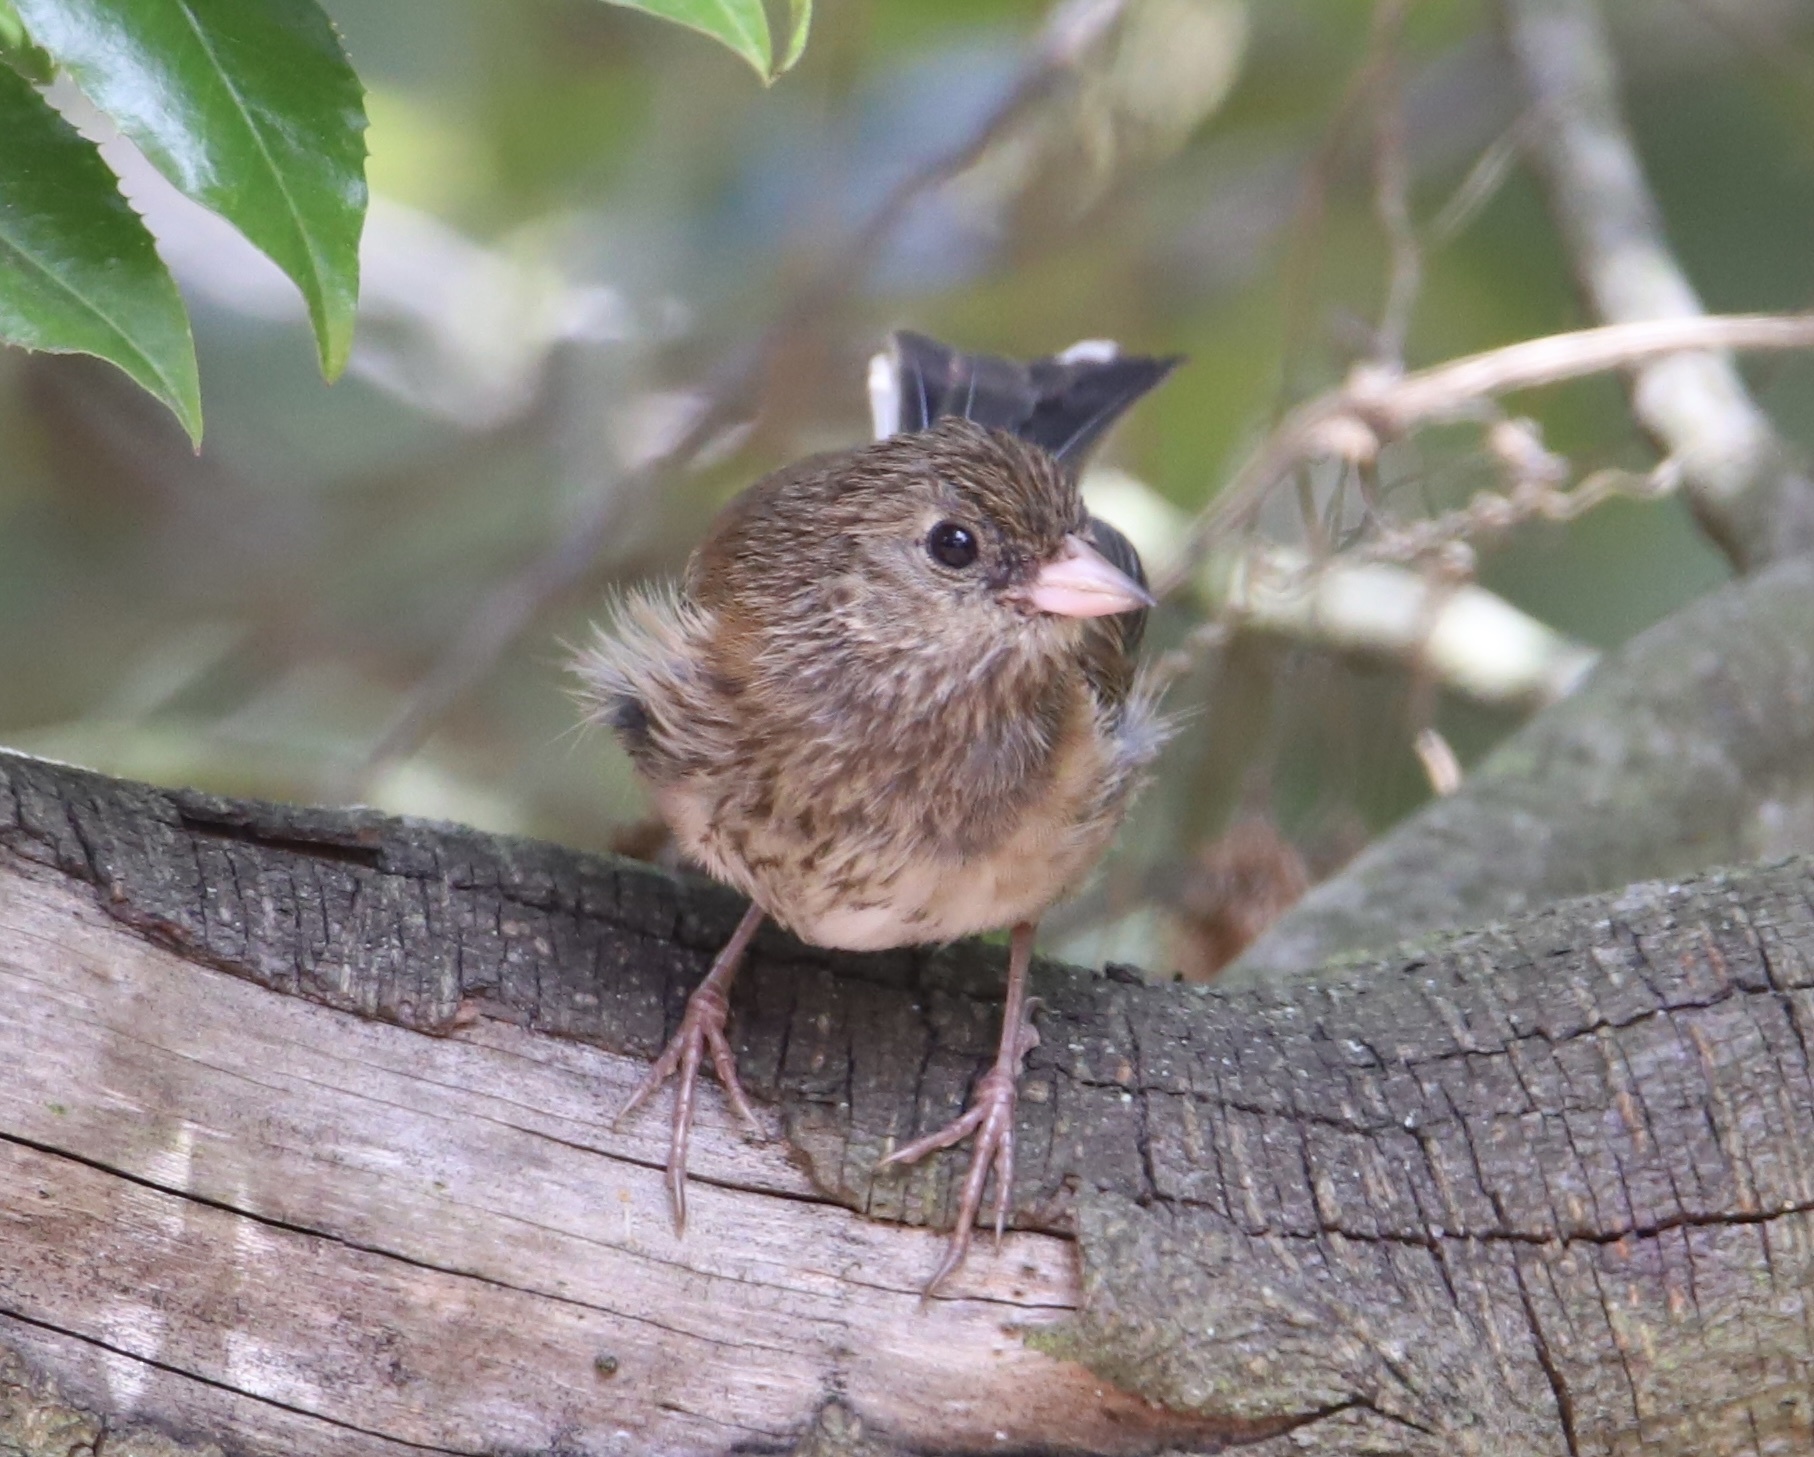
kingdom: Animalia
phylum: Chordata
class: Aves
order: Passeriformes
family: Passerellidae
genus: Junco
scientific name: Junco hyemalis
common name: Dark-eyed junco
